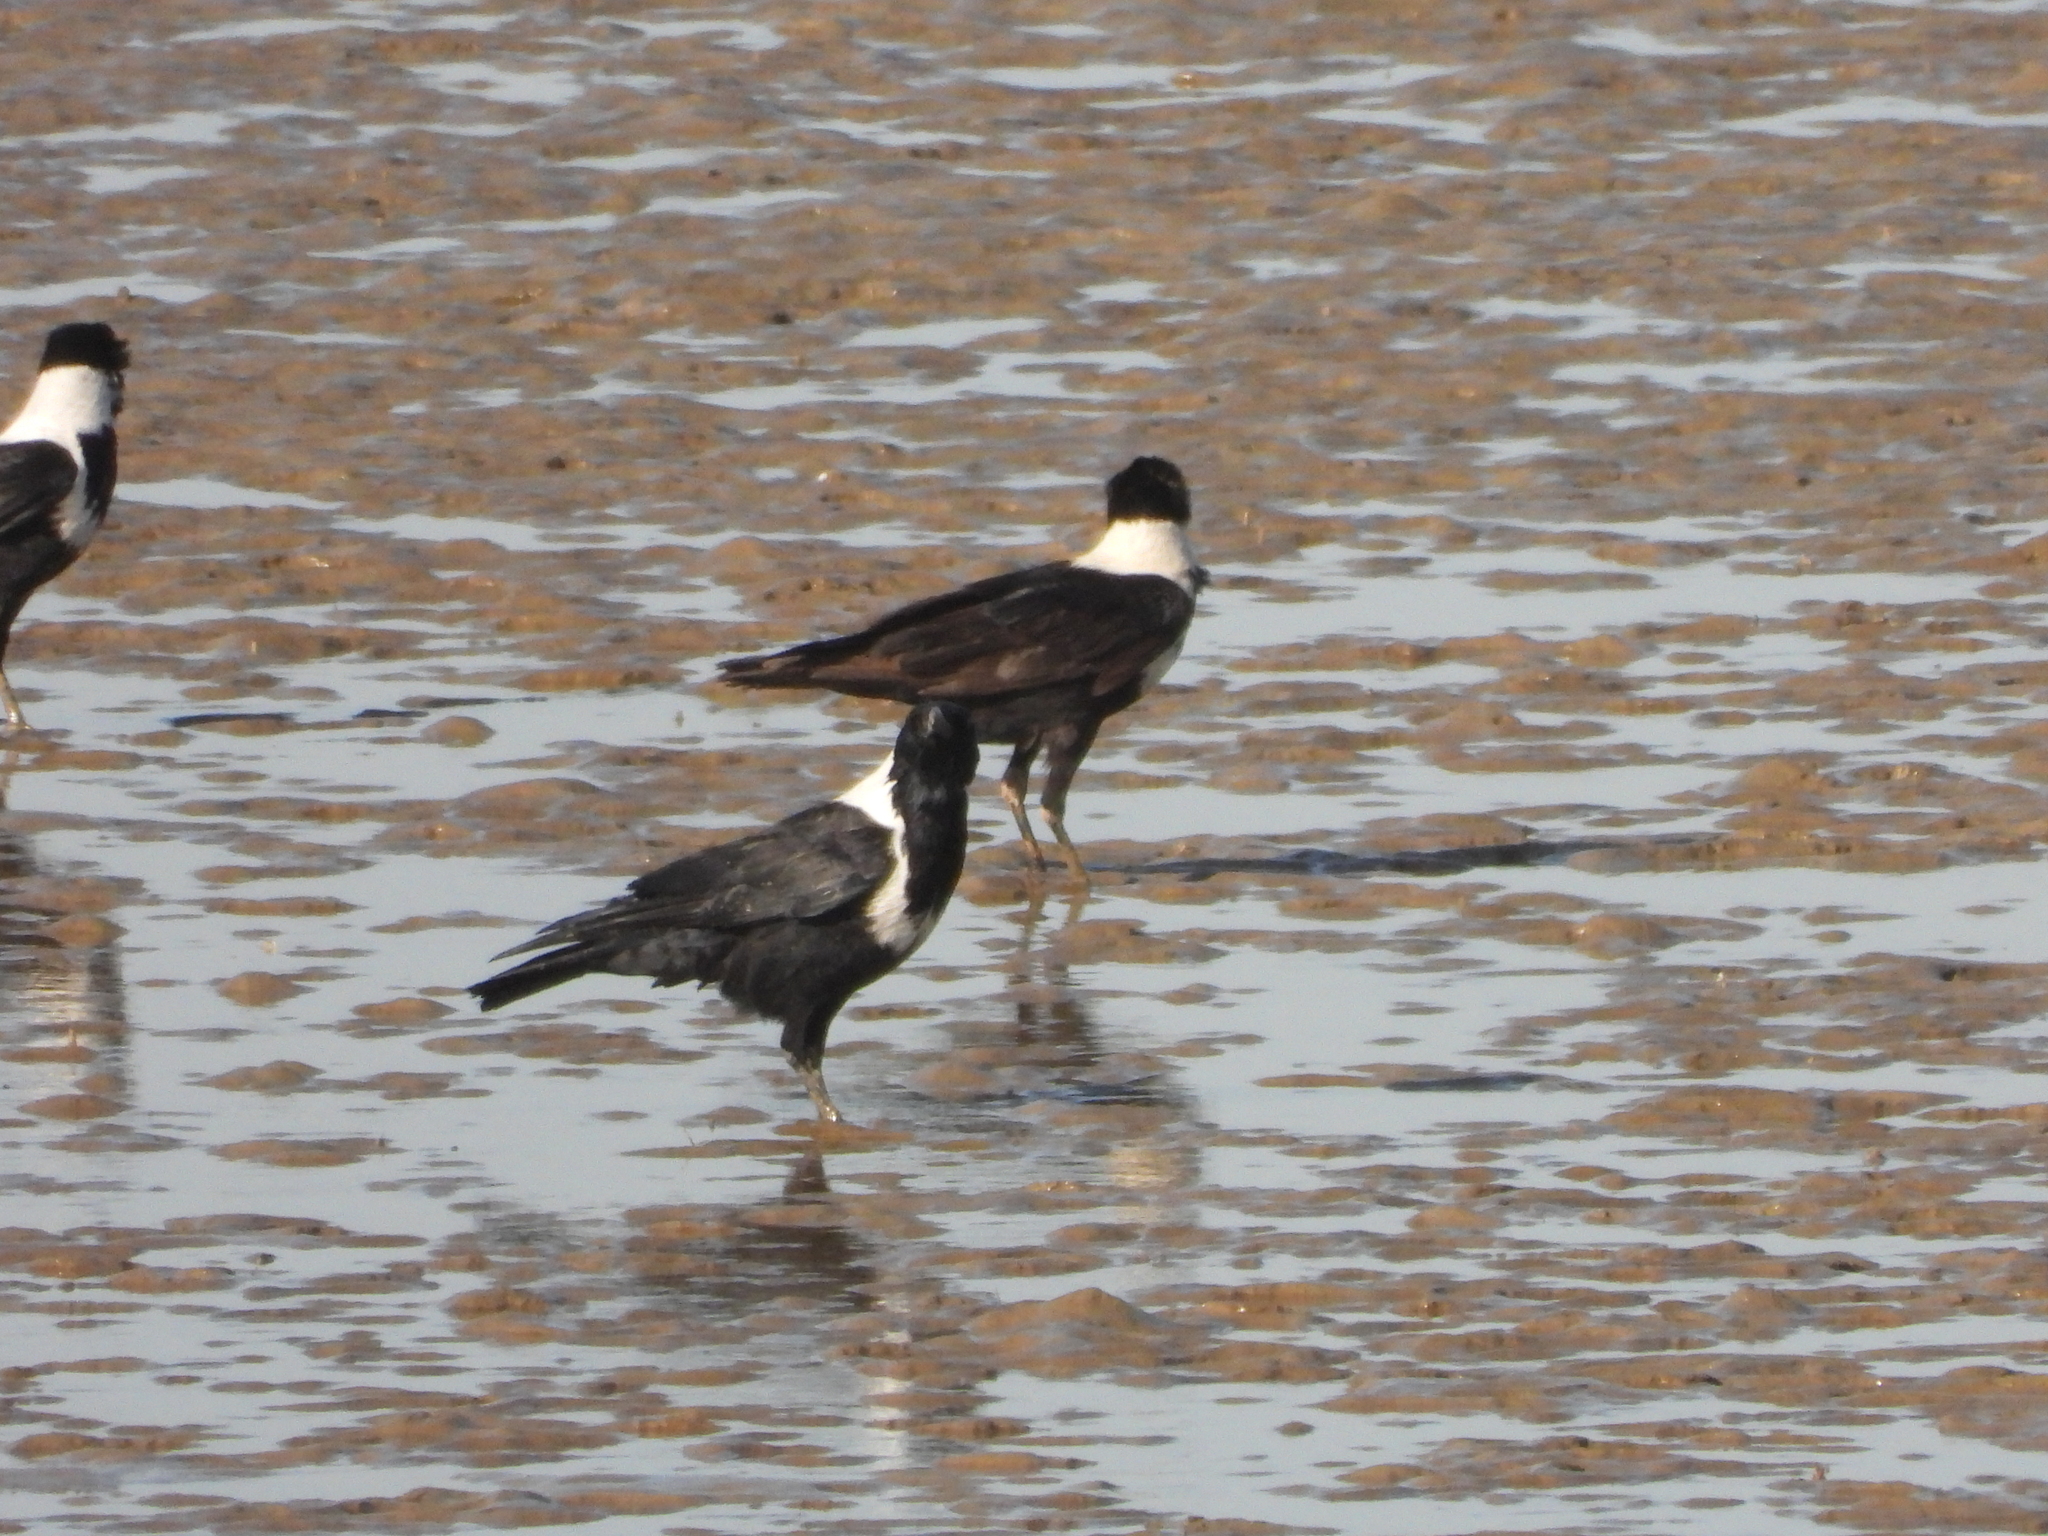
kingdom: Animalia
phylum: Chordata
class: Aves
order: Passeriformes
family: Corvidae
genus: Corvus
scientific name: Corvus pectoralis
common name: Collared crow
